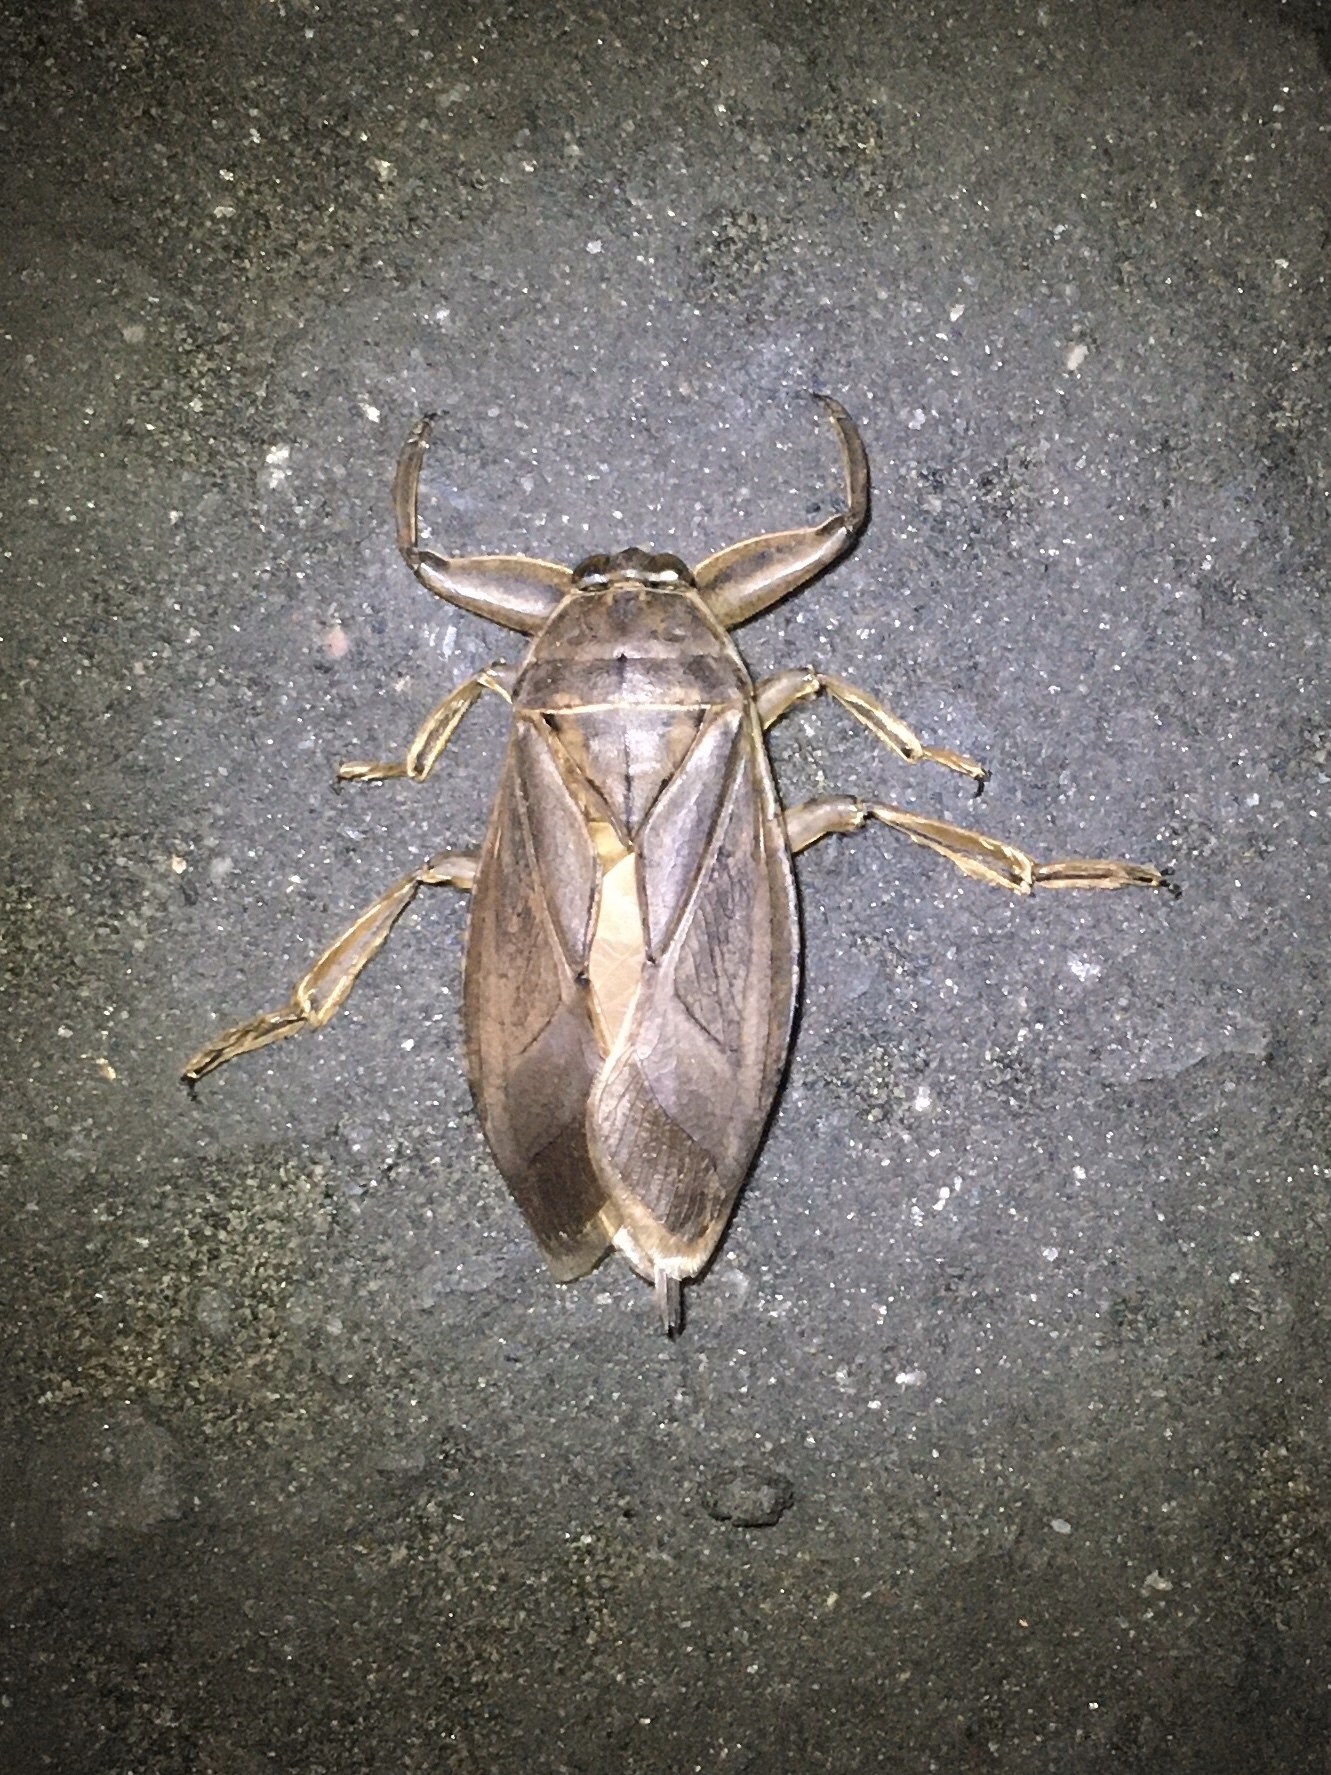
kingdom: Animalia
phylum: Arthropoda
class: Insecta
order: Hemiptera
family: Belostomatidae
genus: Lethocerus
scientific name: Lethocerus americanus
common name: Giant water bug
